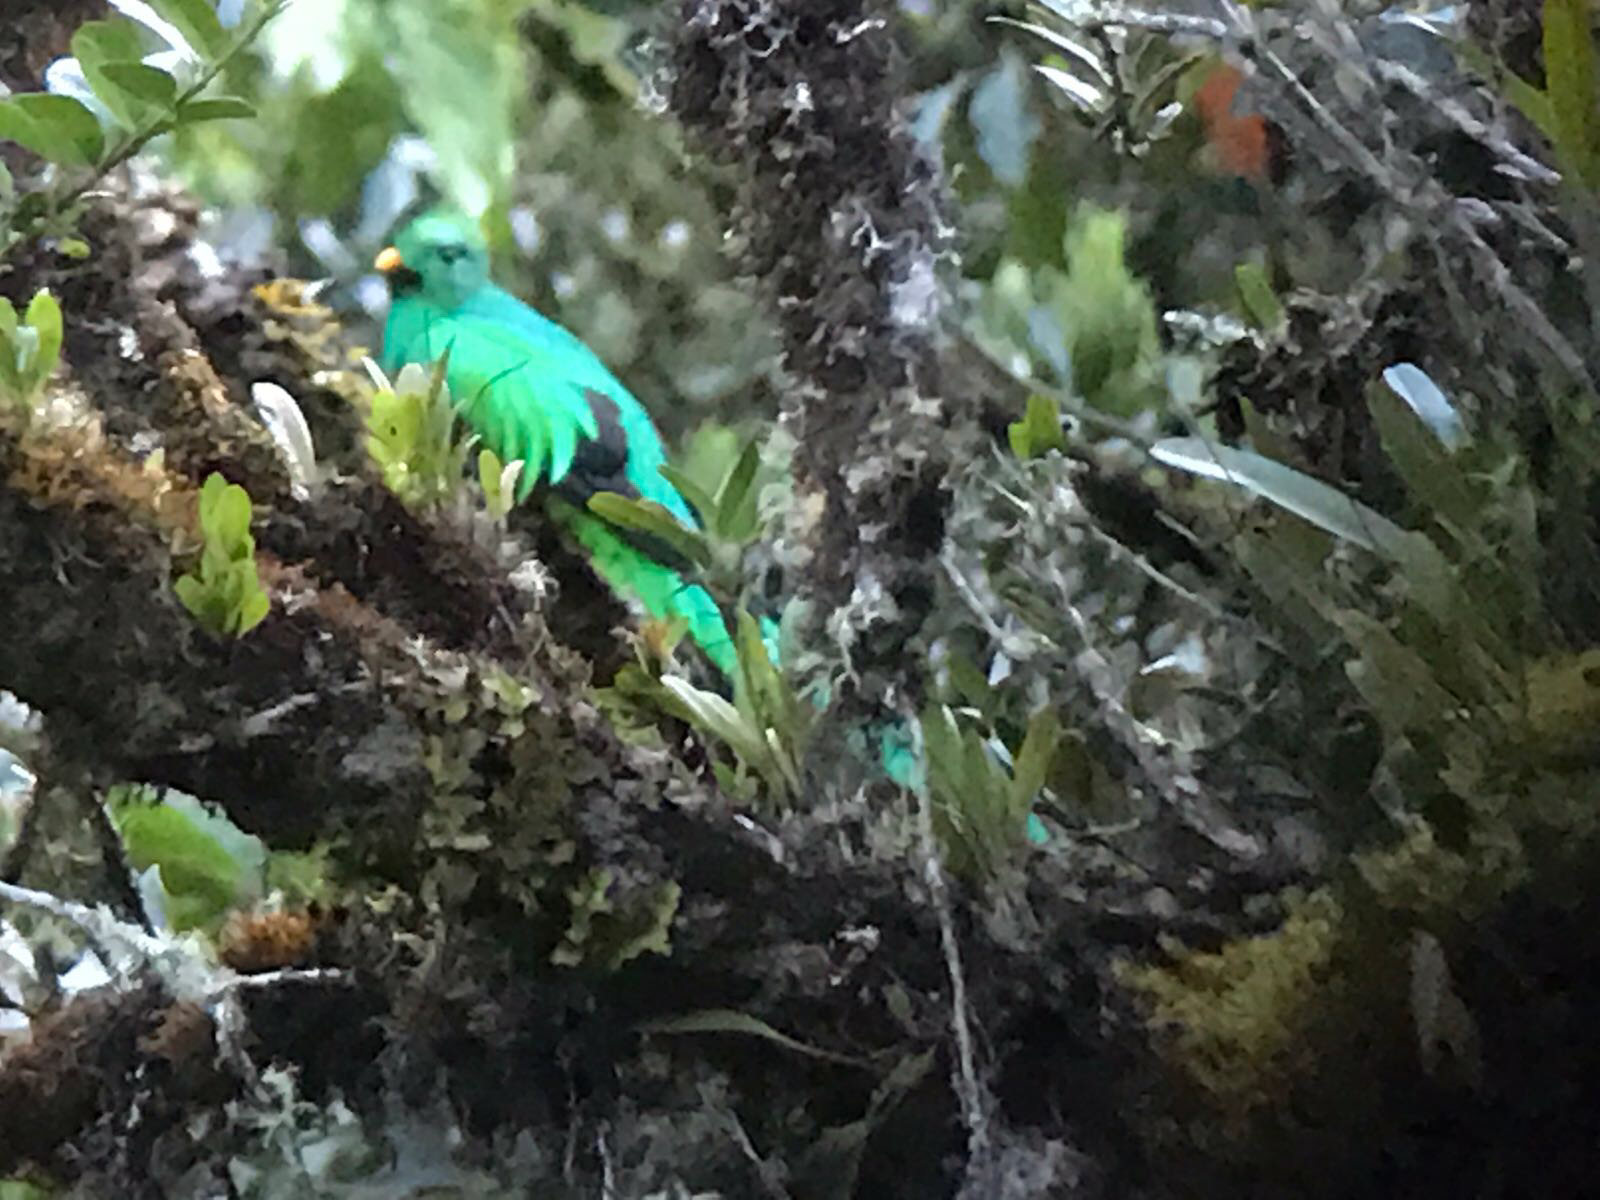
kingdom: Animalia
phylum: Chordata
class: Aves
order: Trogoniformes
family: Trogonidae
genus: Pharomachrus
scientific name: Pharomachrus mocinno
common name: Resplendent quetzal
